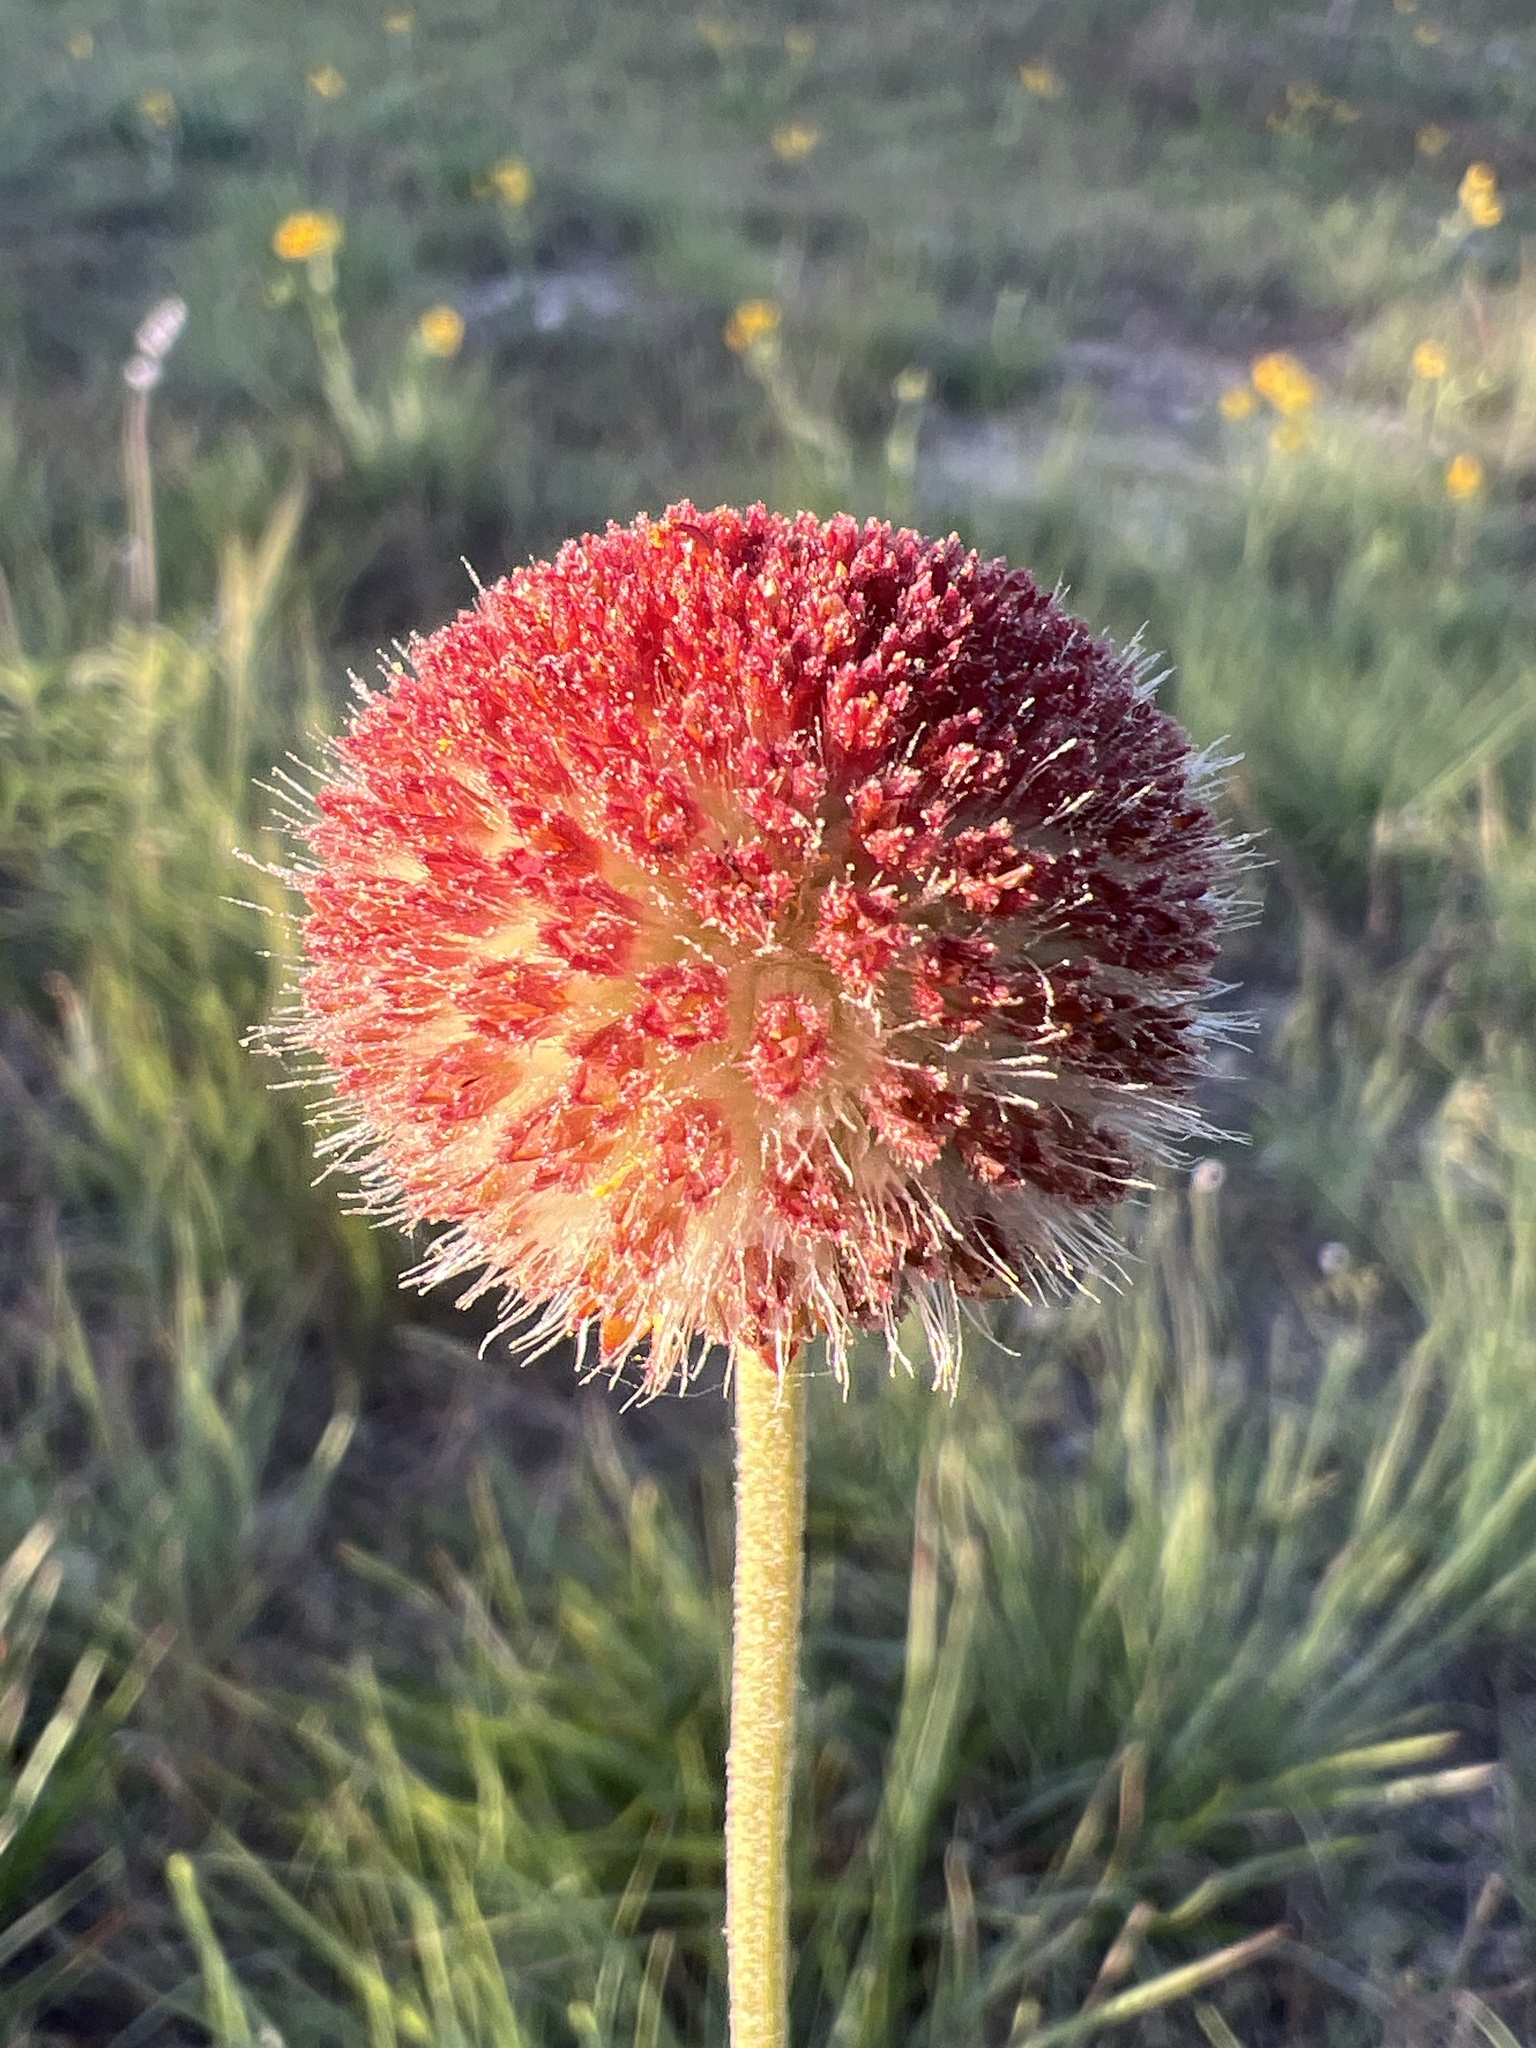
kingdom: Plantae
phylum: Tracheophyta
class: Magnoliopsida
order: Asterales
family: Asteraceae
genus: Gaillardia
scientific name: Gaillardia suavis
